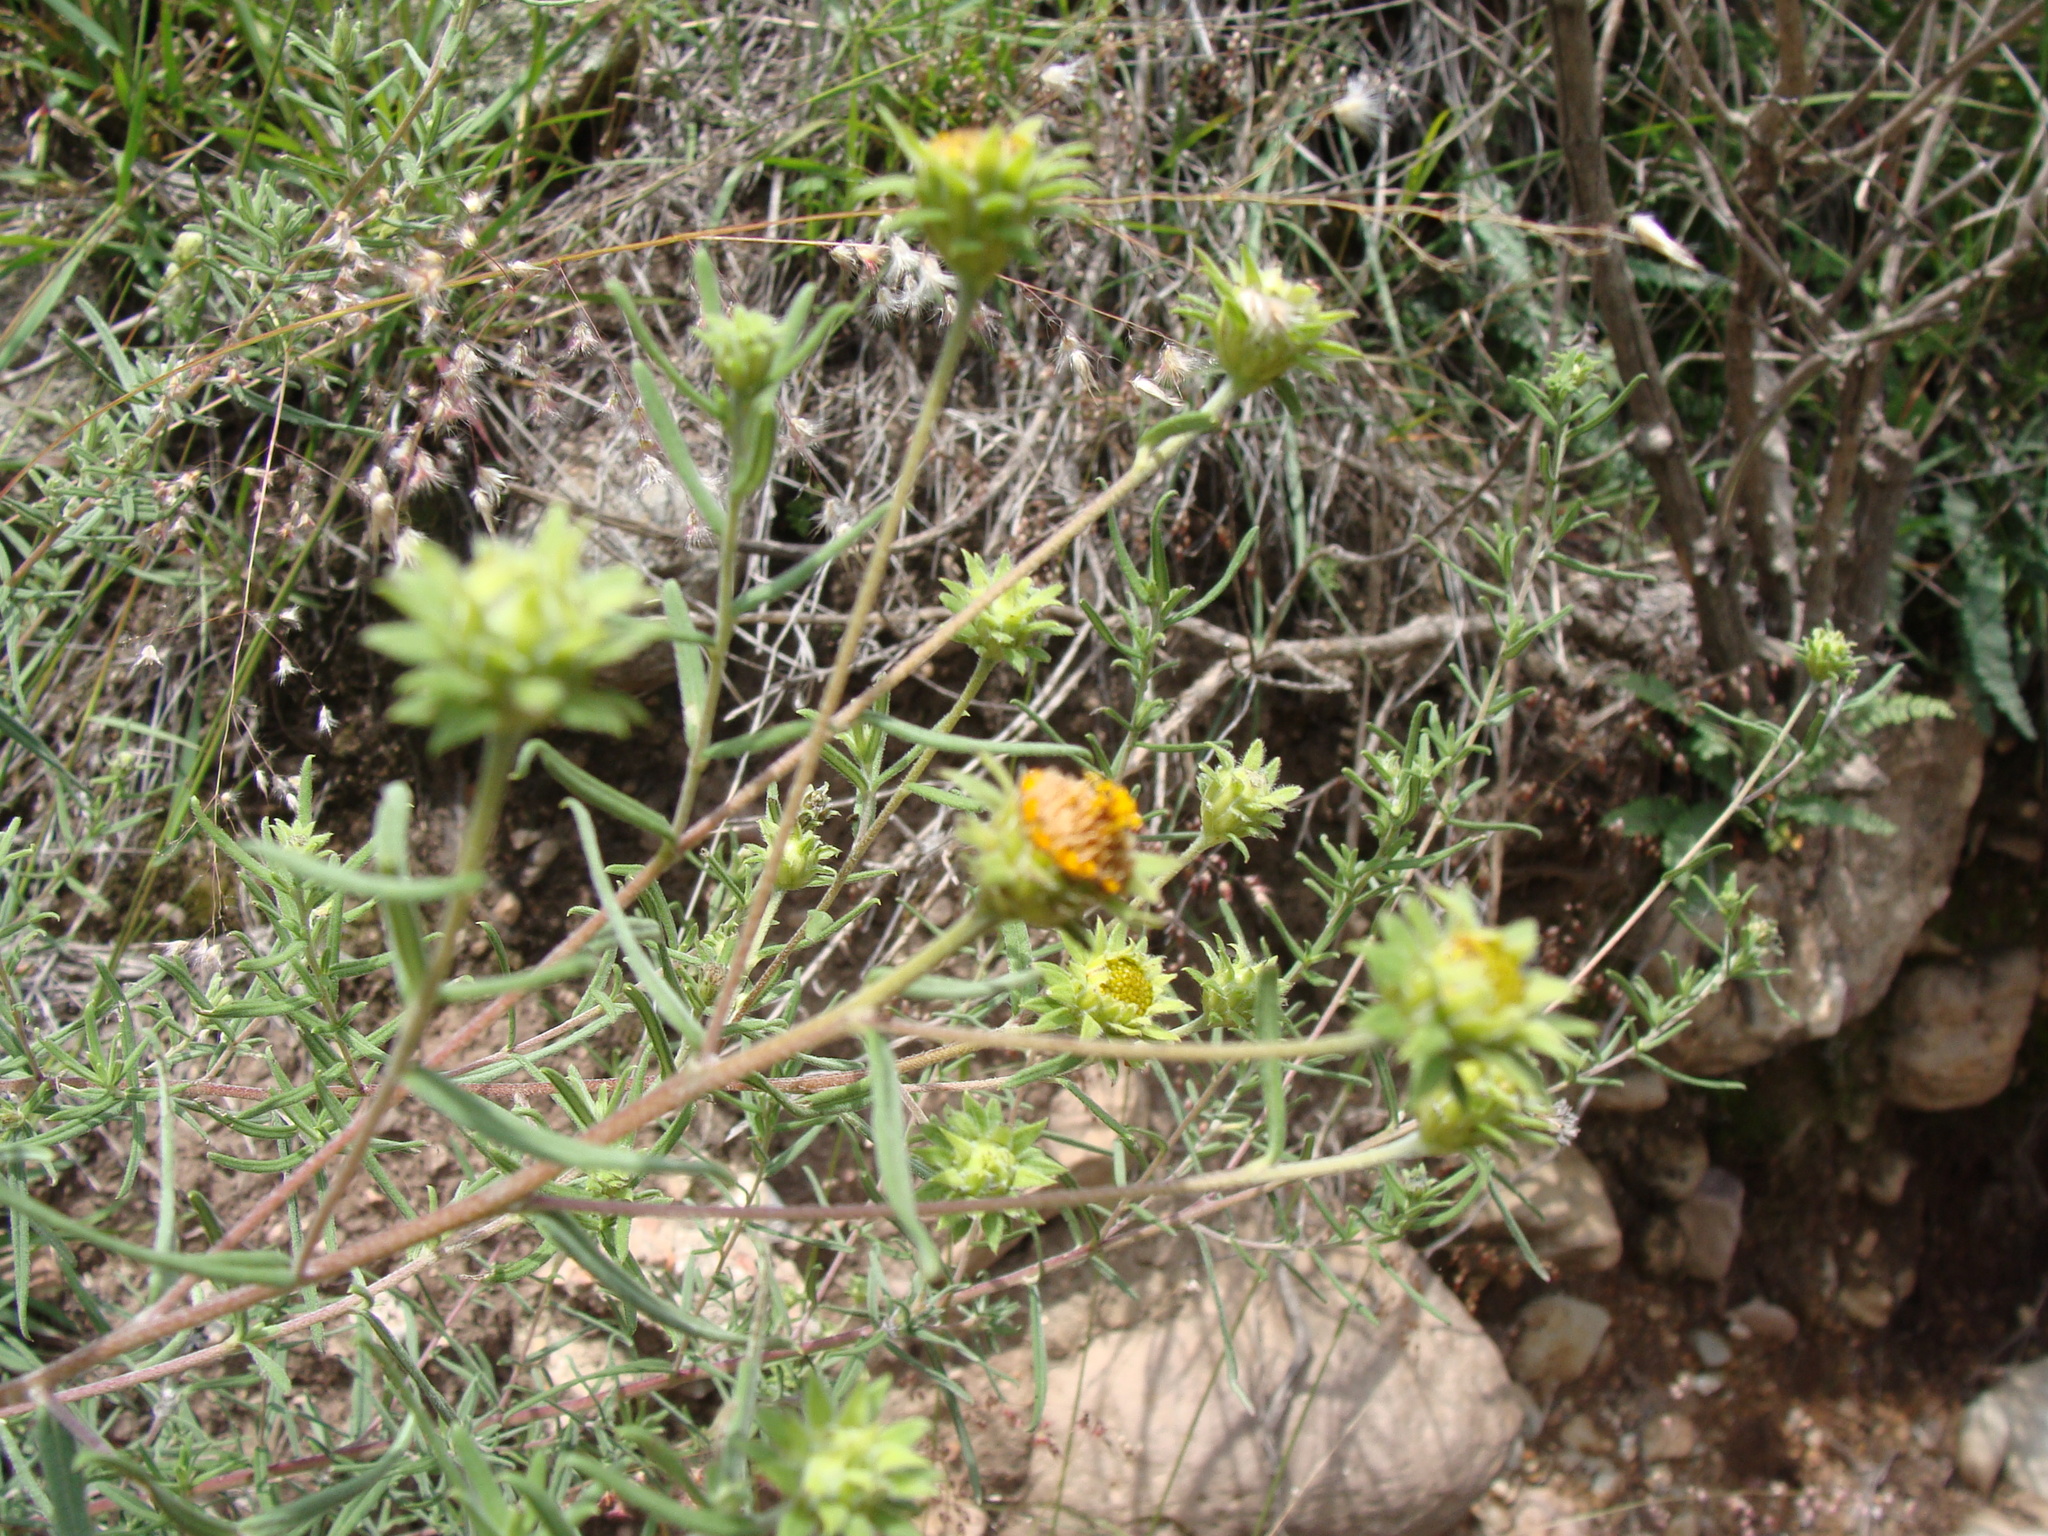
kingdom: Plantae
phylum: Tracheophyta
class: Magnoliopsida
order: Asterales
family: Asteraceae
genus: Aldama
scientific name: Aldama linearis
